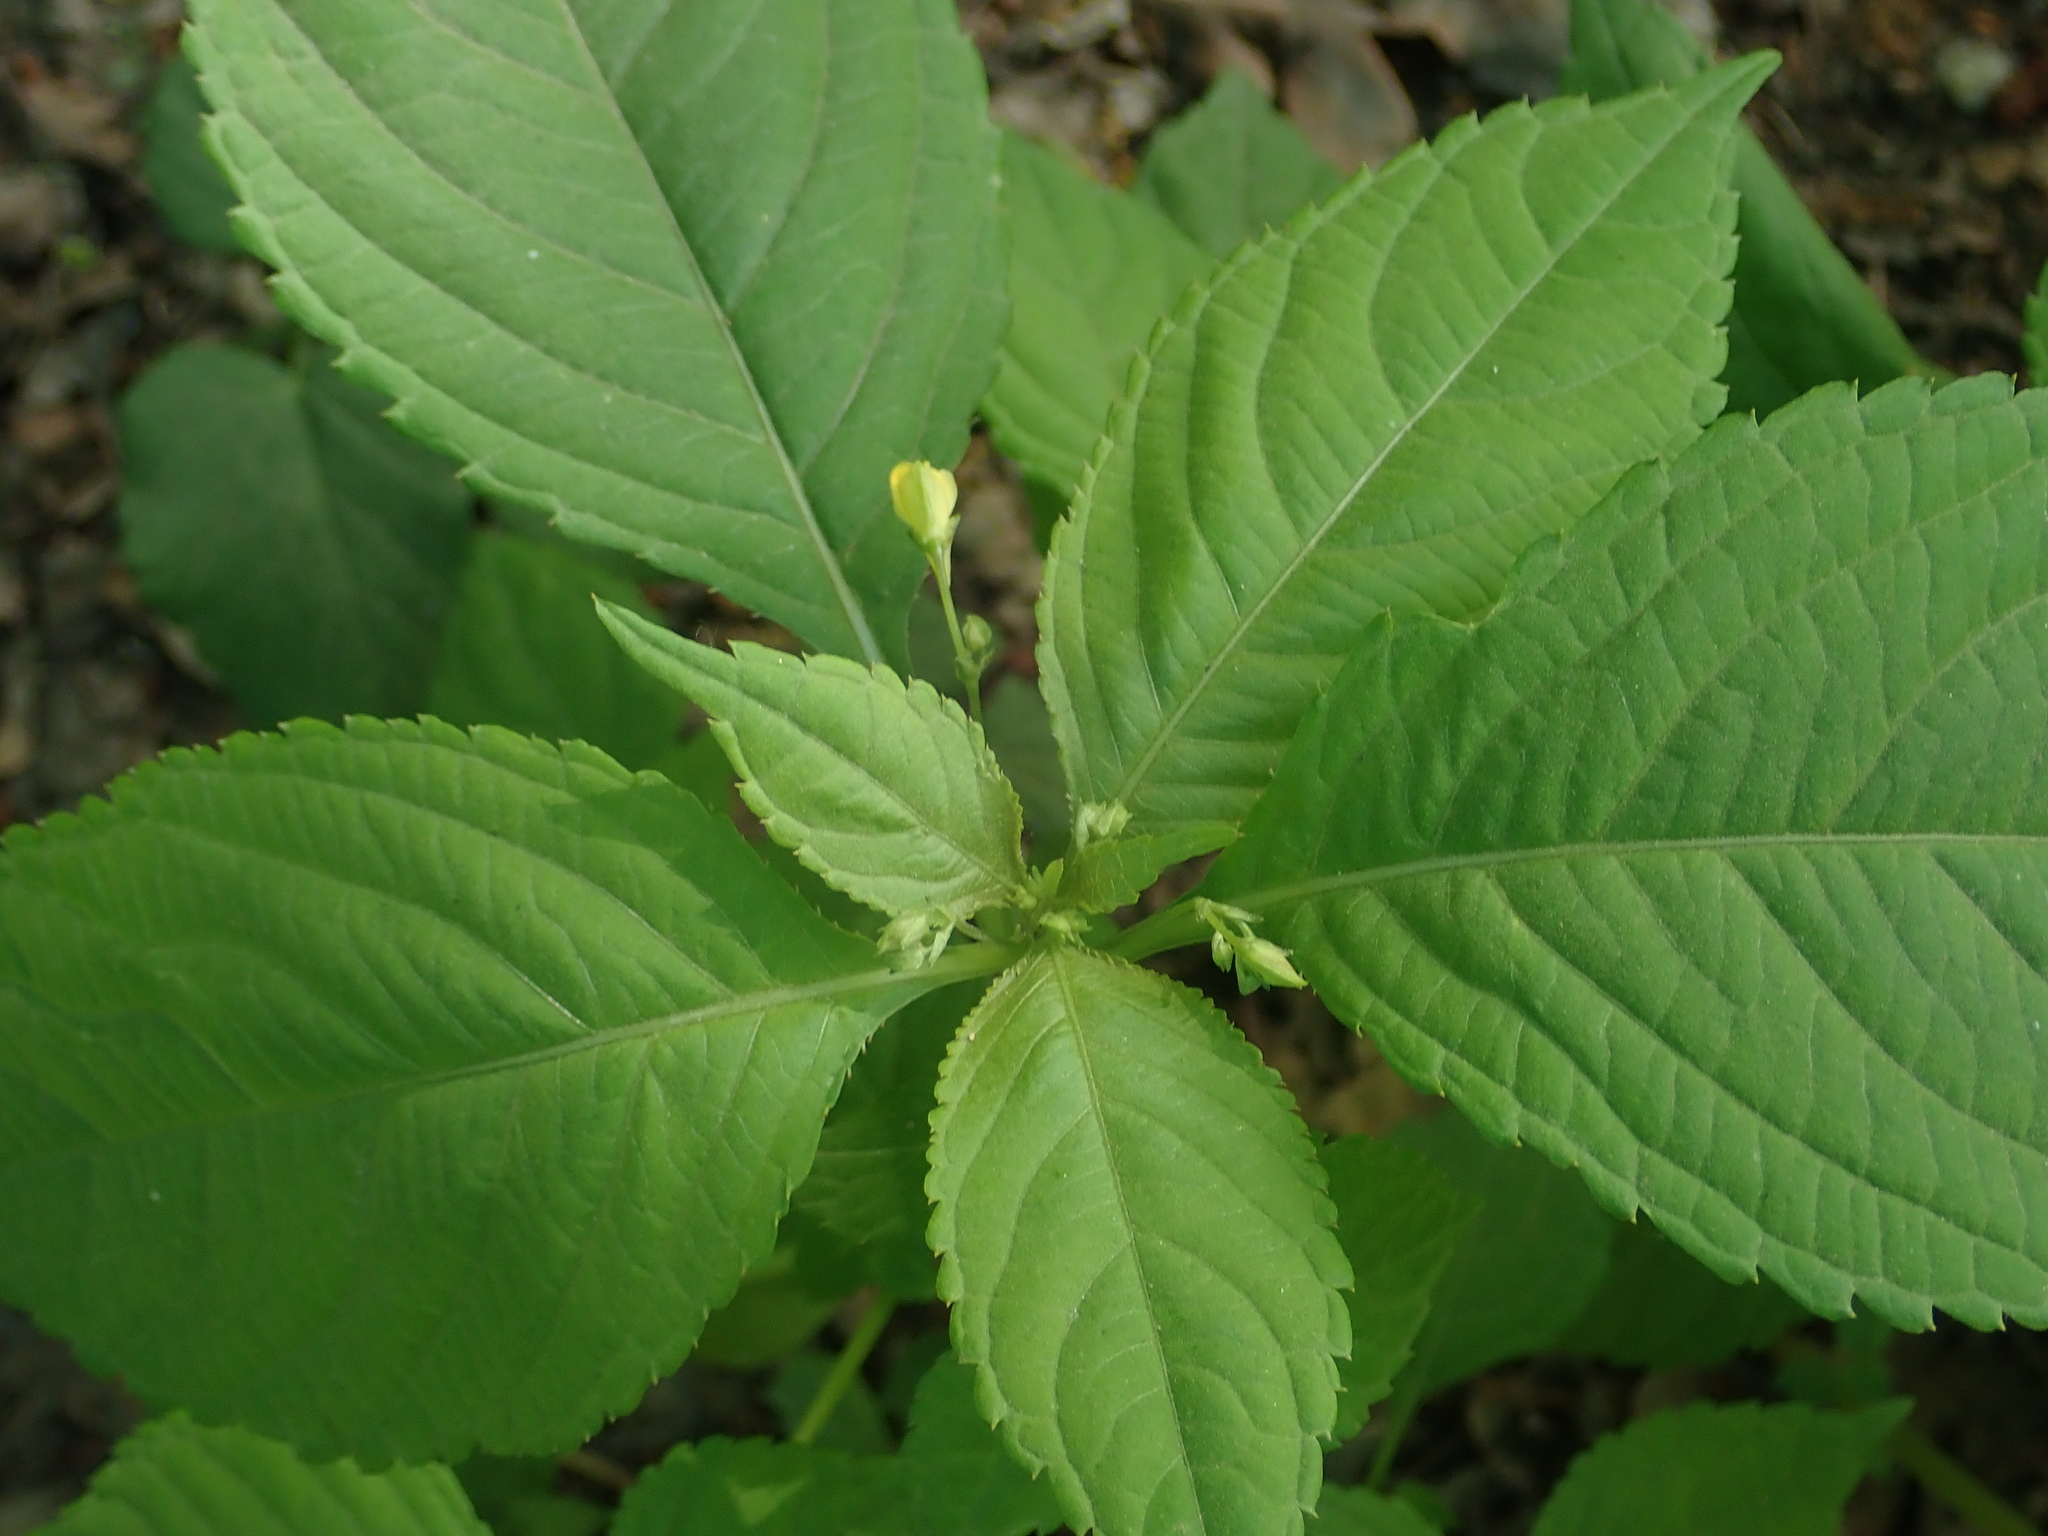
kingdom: Plantae
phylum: Tracheophyta
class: Magnoliopsida
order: Ericales
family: Balsaminaceae
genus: Impatiens
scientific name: Impatiens parviflora
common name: Small balsam
